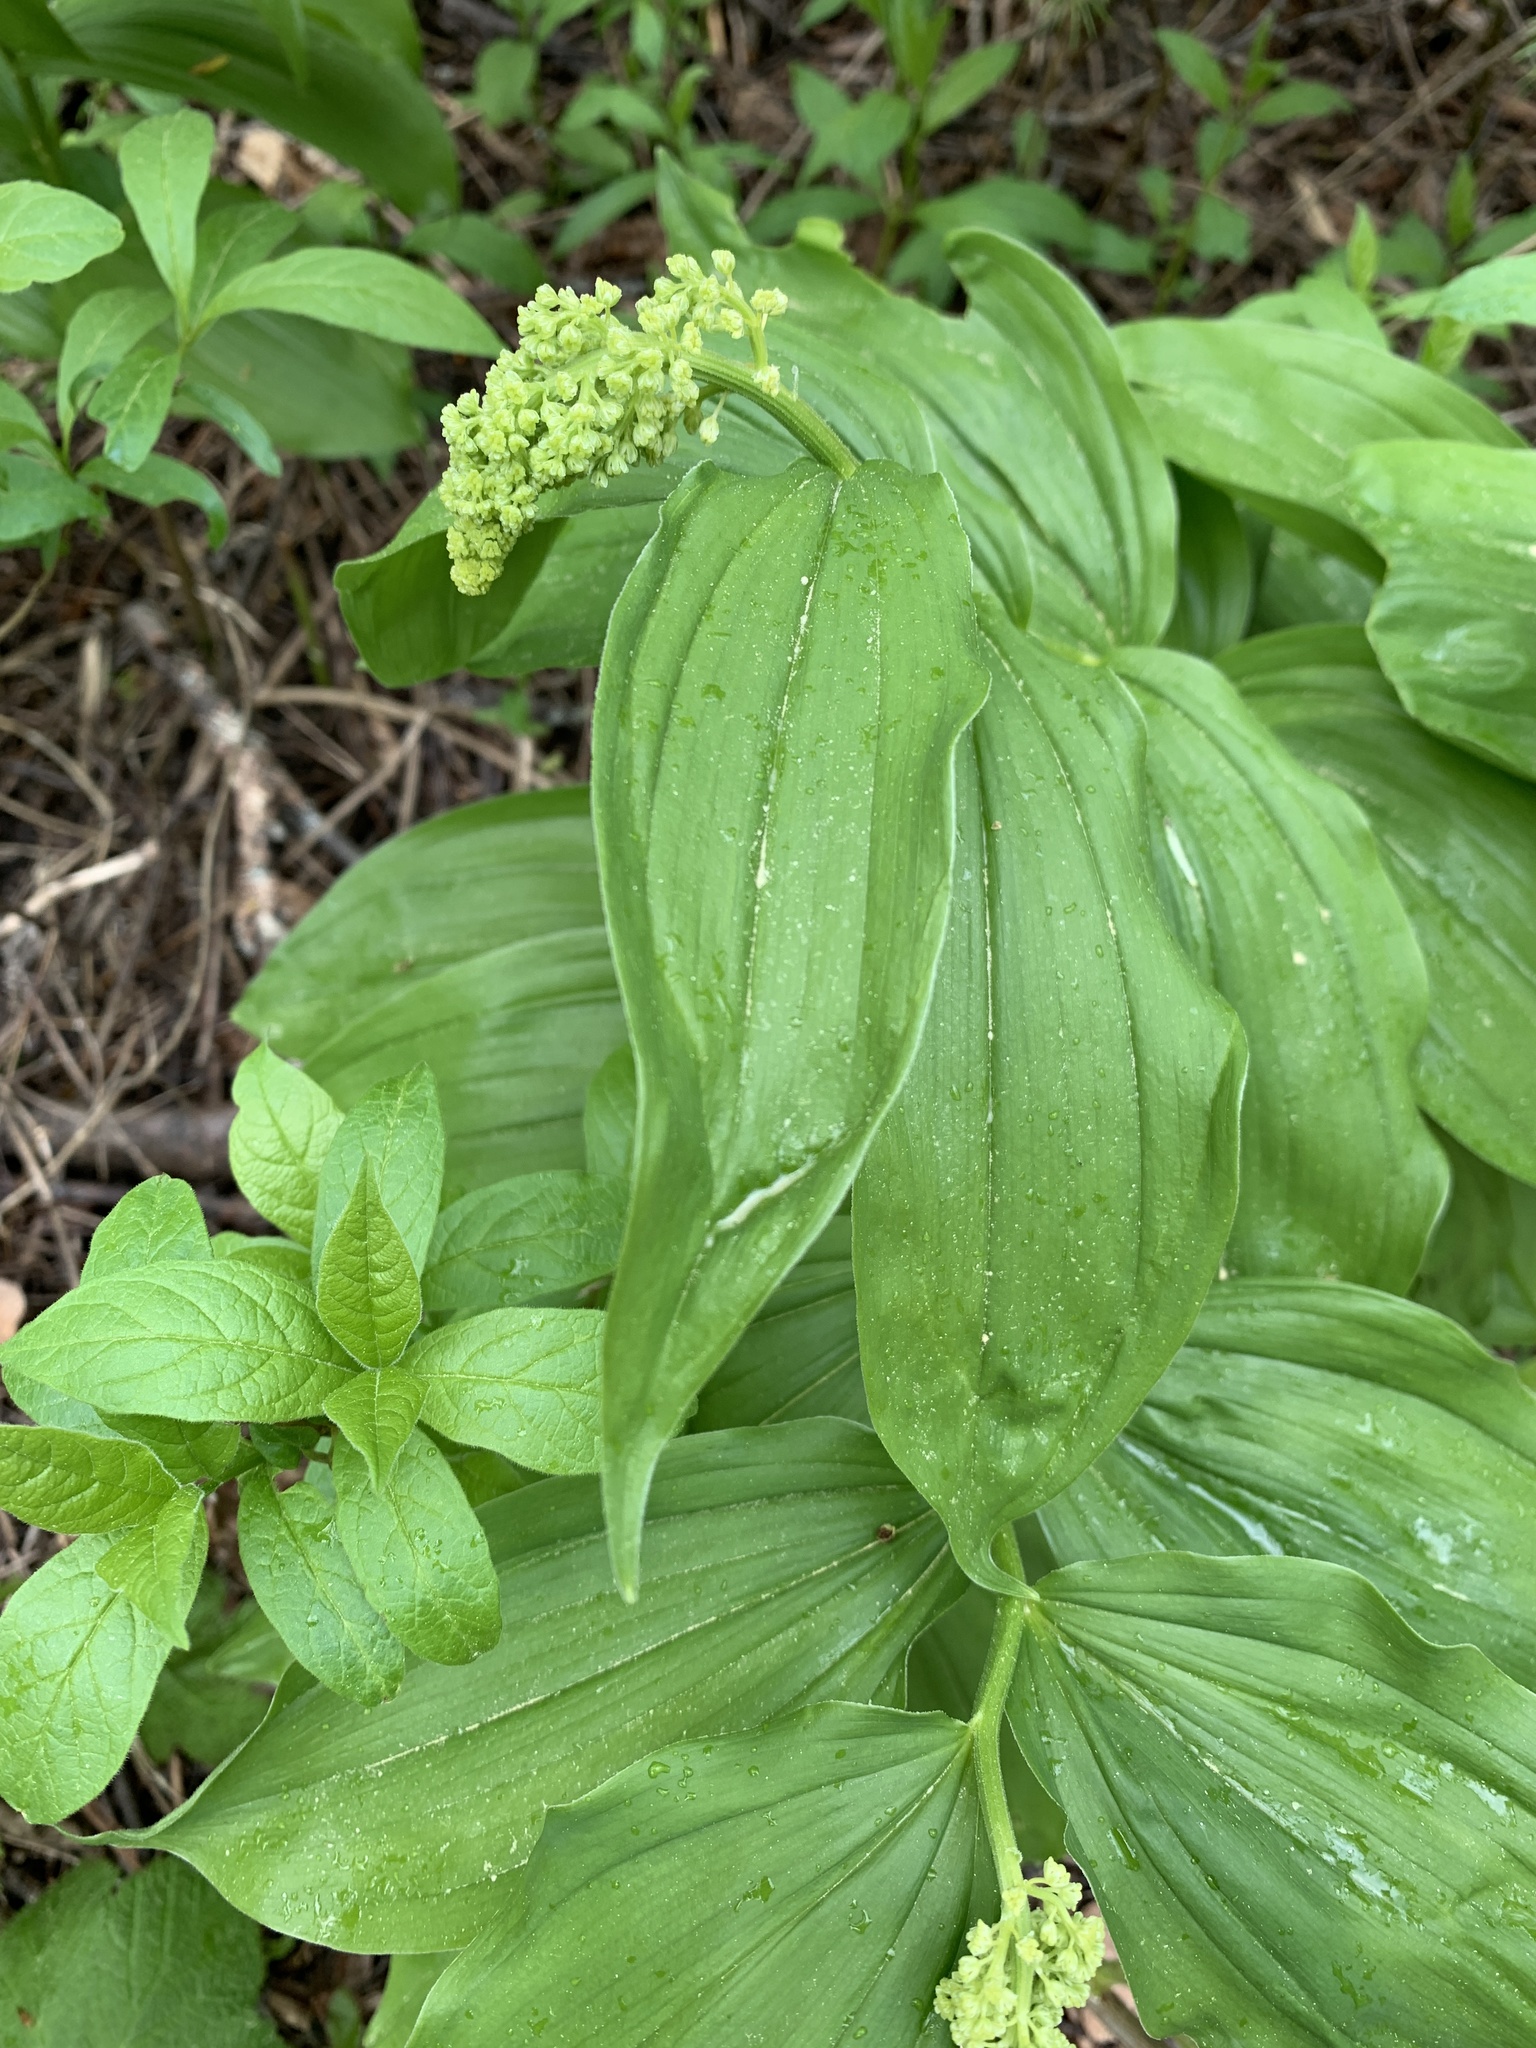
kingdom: Plantae
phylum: Tracheophyta
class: Liliopsida
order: Asparagales
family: Asparagaceae
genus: Maianthemum
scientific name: Maianthemum racemosum
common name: False spikenard
